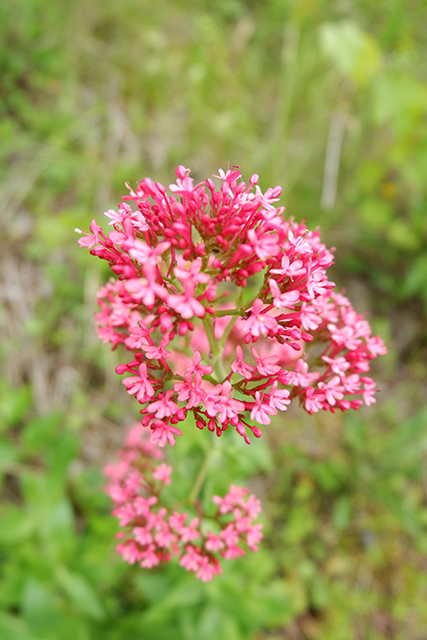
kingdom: Plantae
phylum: Tracheophyta
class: Magnoliopsida
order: Dipsacales
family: Caprifoliaceae
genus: Centranthus
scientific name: Centranthus ruber
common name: Red valerian
